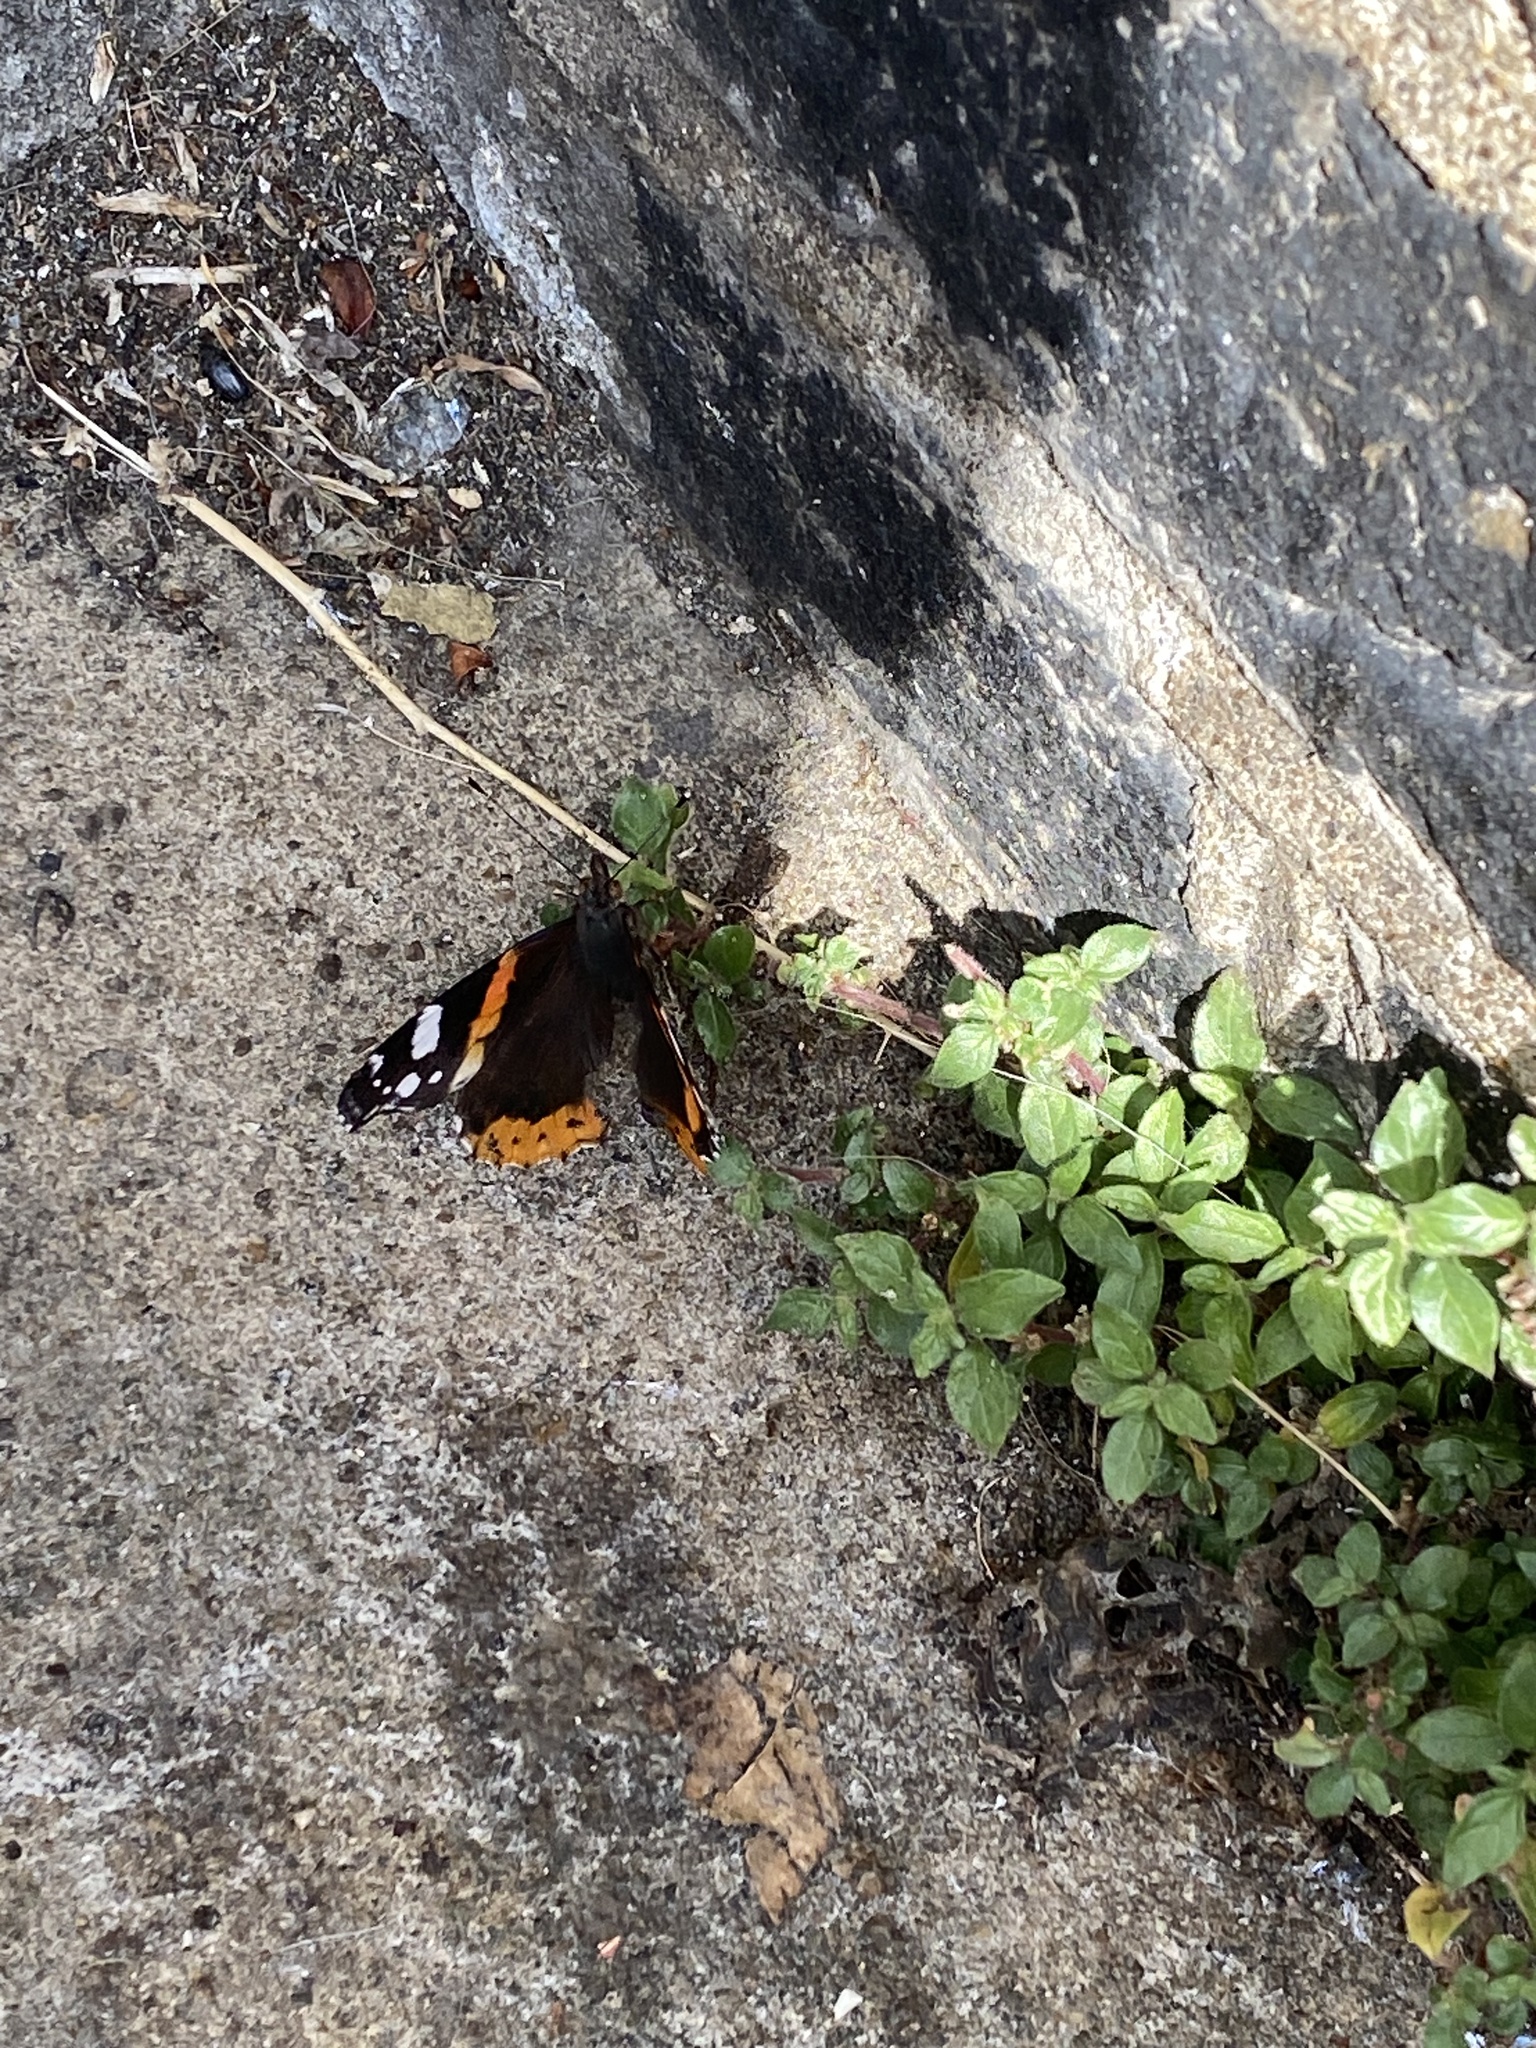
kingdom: Animalia
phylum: Arthropoda
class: Insecta
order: Lepidoptera
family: Nymphalidae
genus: Vanessa
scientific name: Vanessa atalanta
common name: Red admiral
